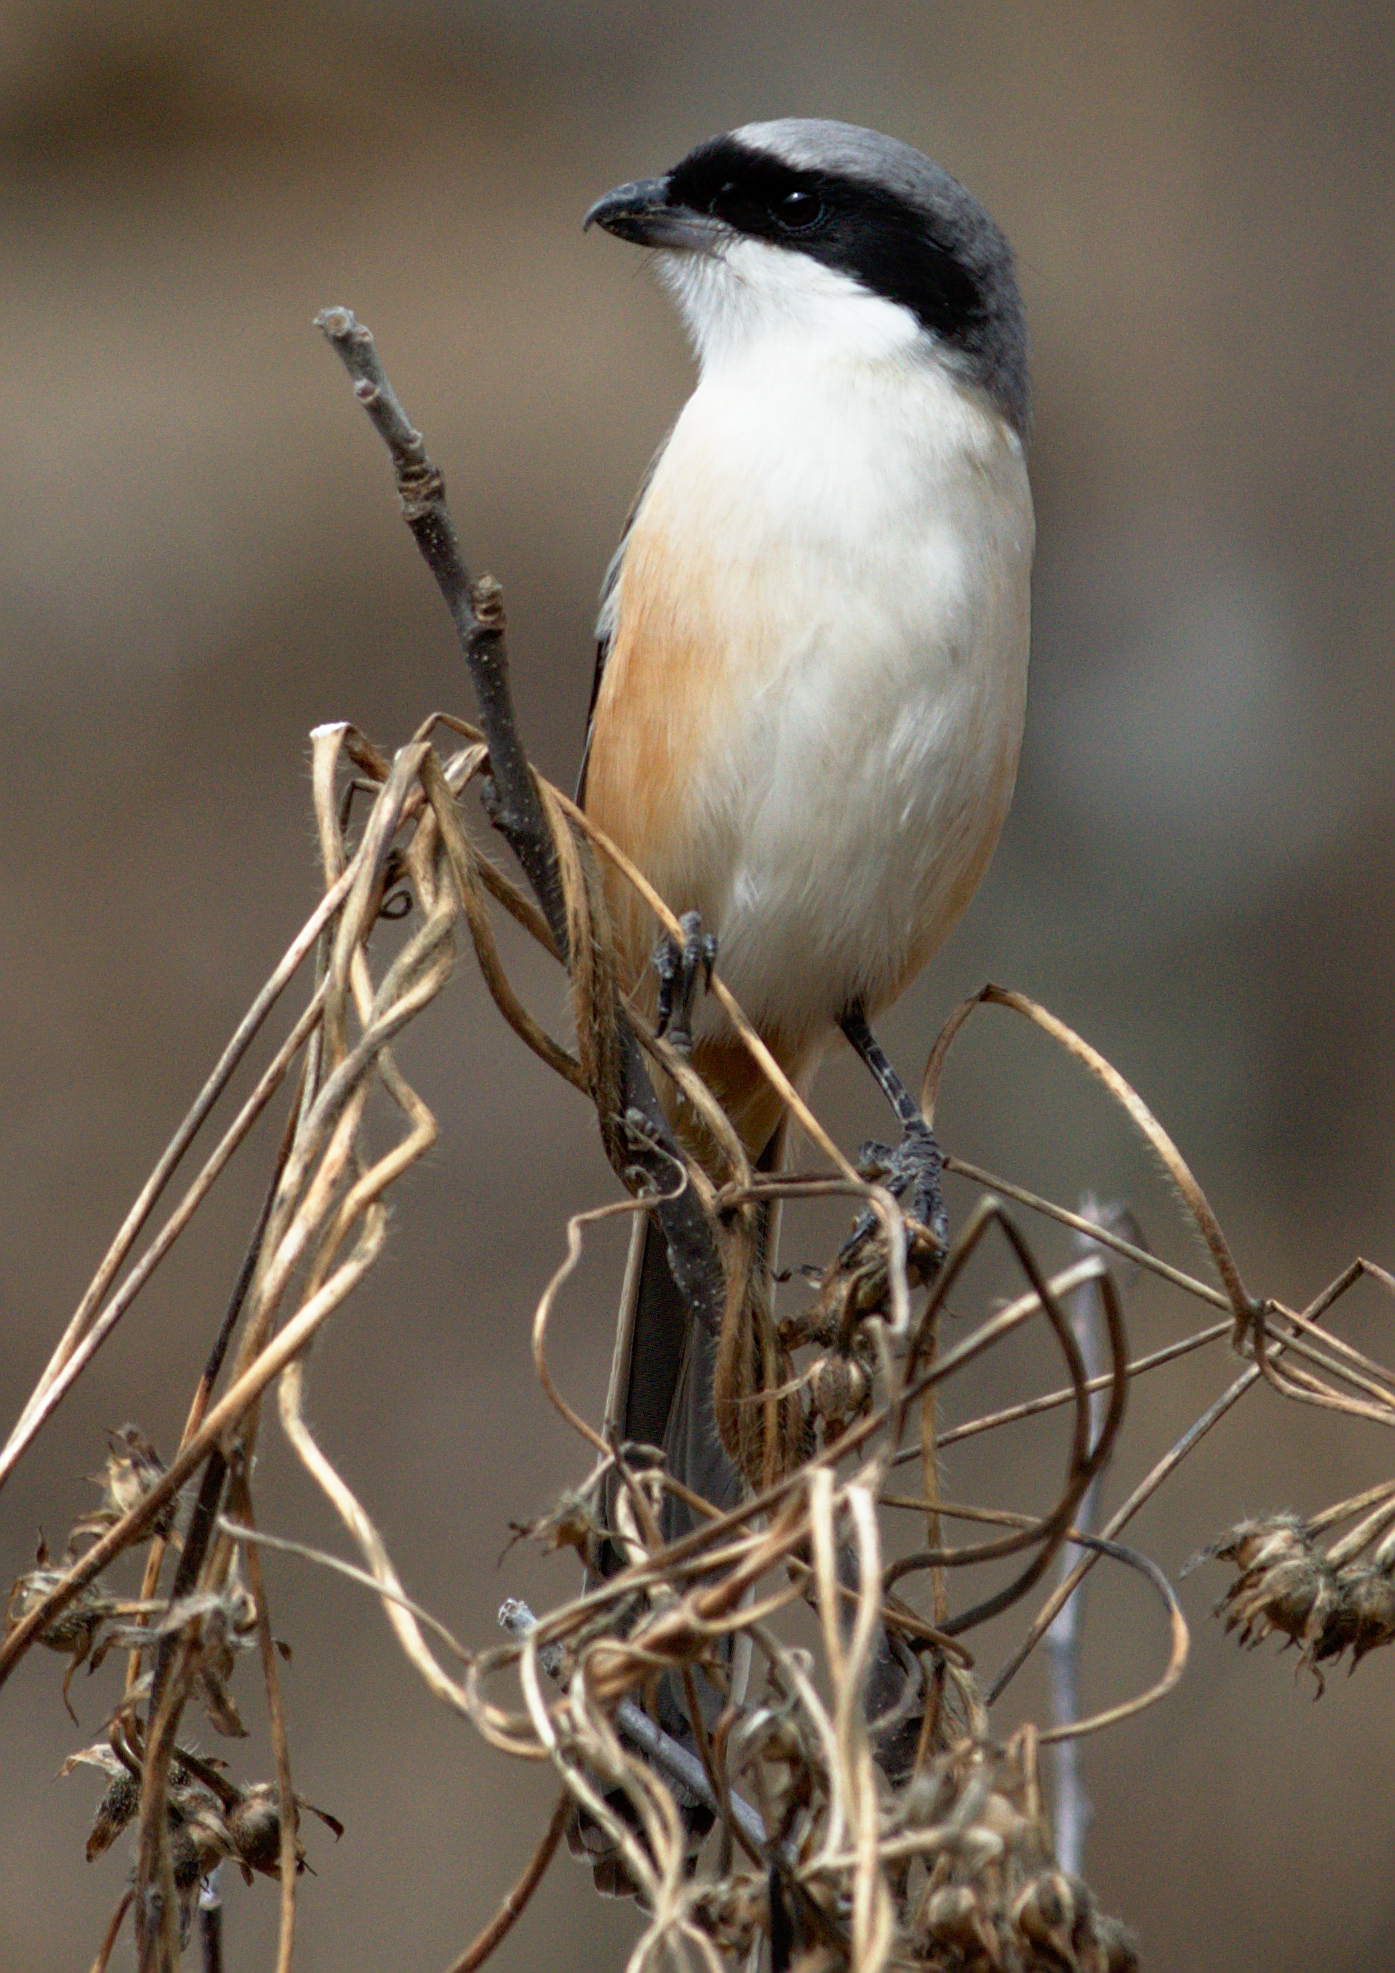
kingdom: Animalia
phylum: Chordata
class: Aves
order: Passeriformes
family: Laniidae
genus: Lanius
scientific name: Lanius schach
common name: Long-tailed shrike
